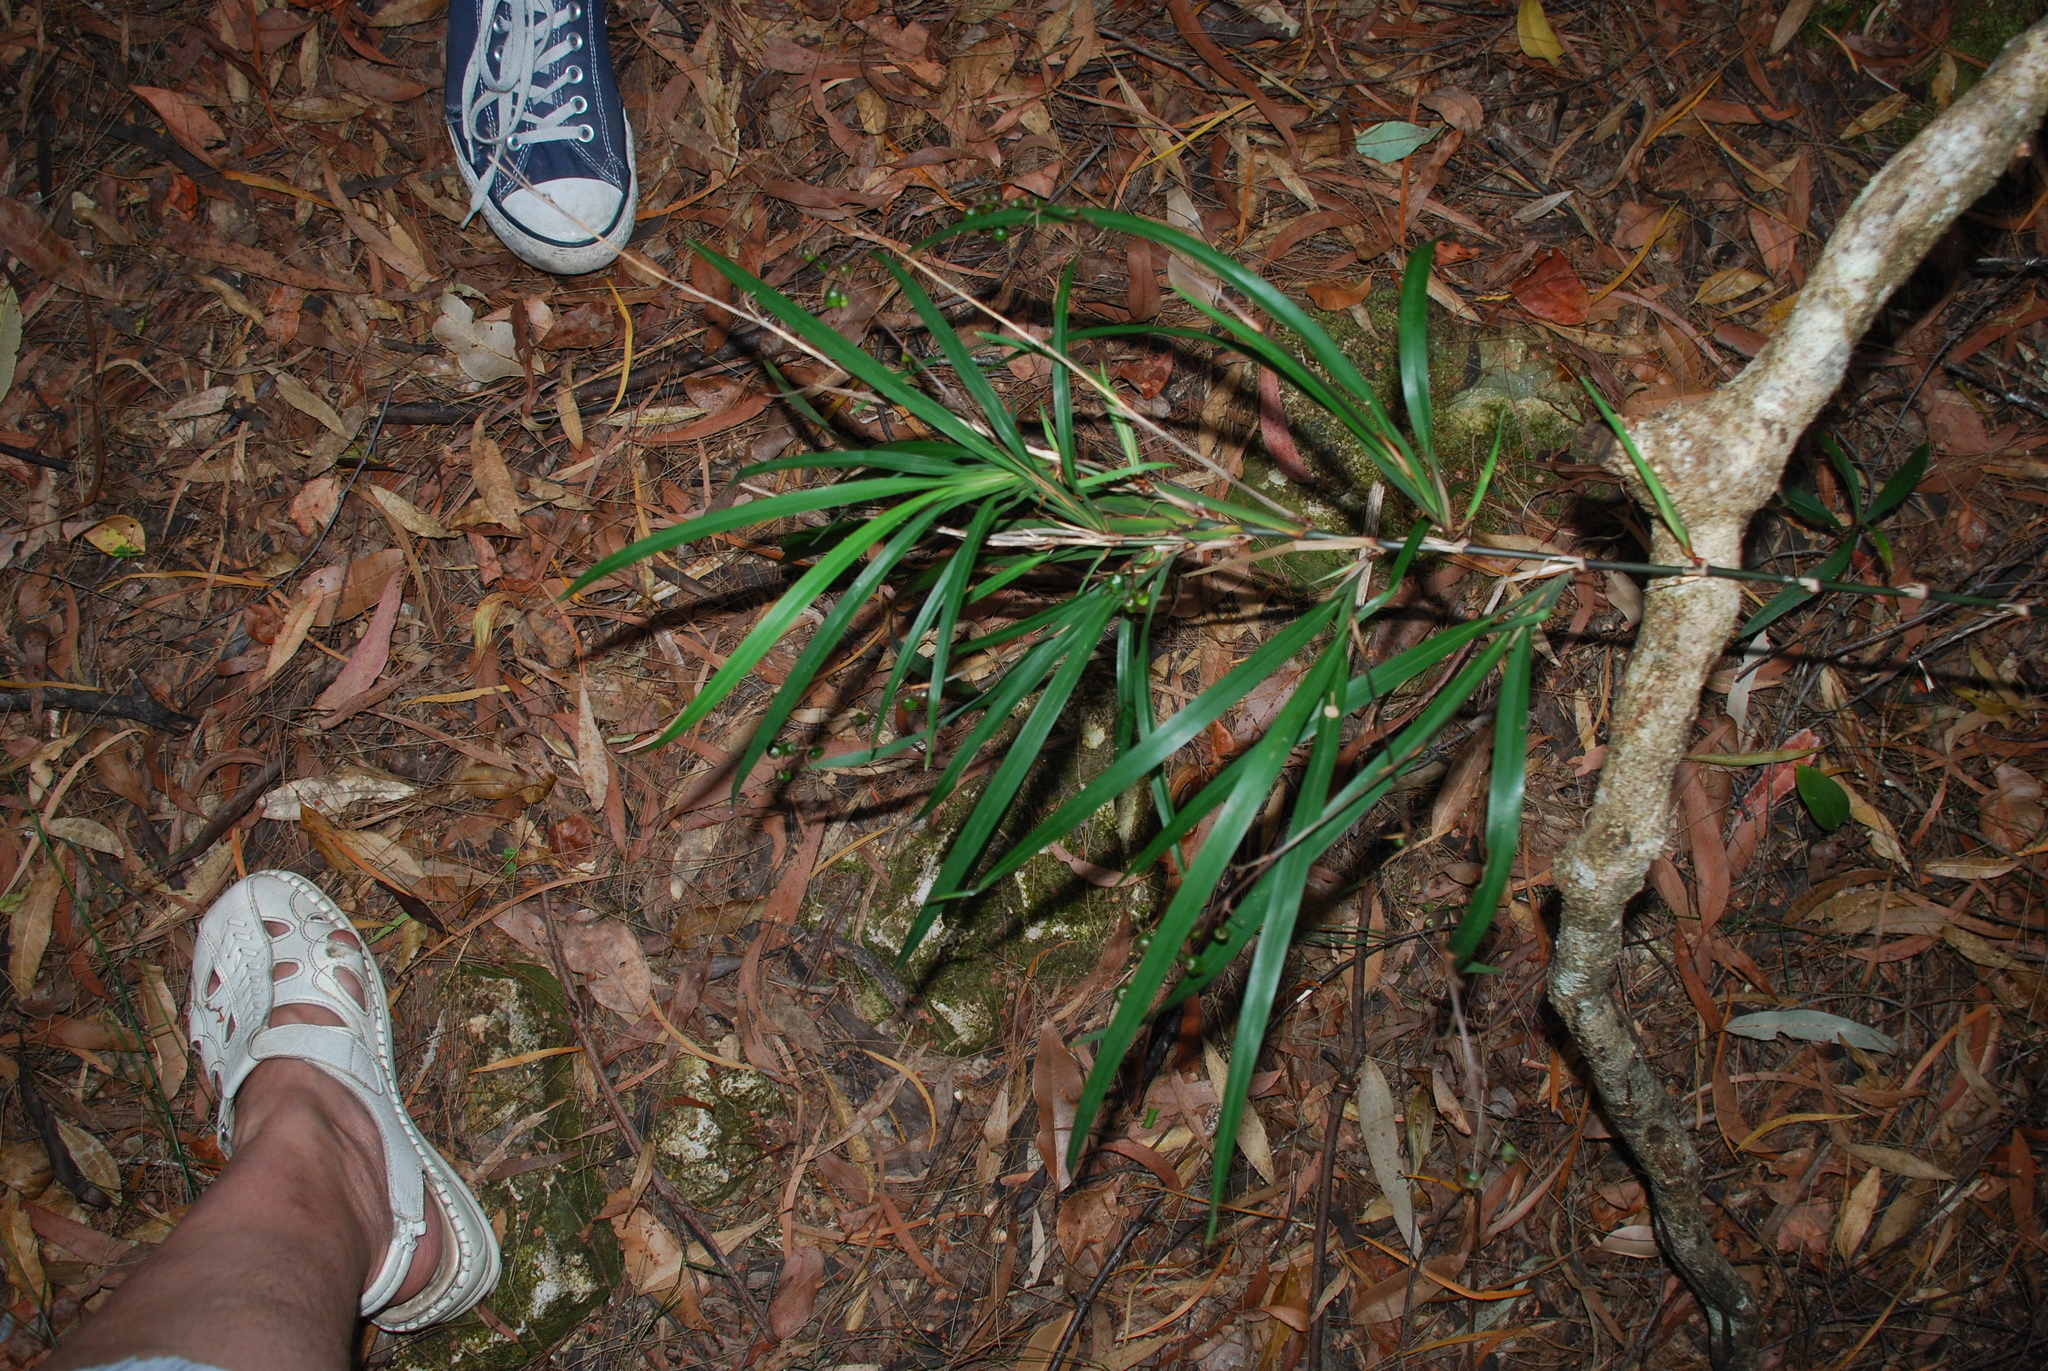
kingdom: Plantae
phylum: Tracheophyta
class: Liliopsida
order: Asparagales
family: Asphodelaceae
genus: Dianella
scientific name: Dianella caerulea
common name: Blue flax-lily
